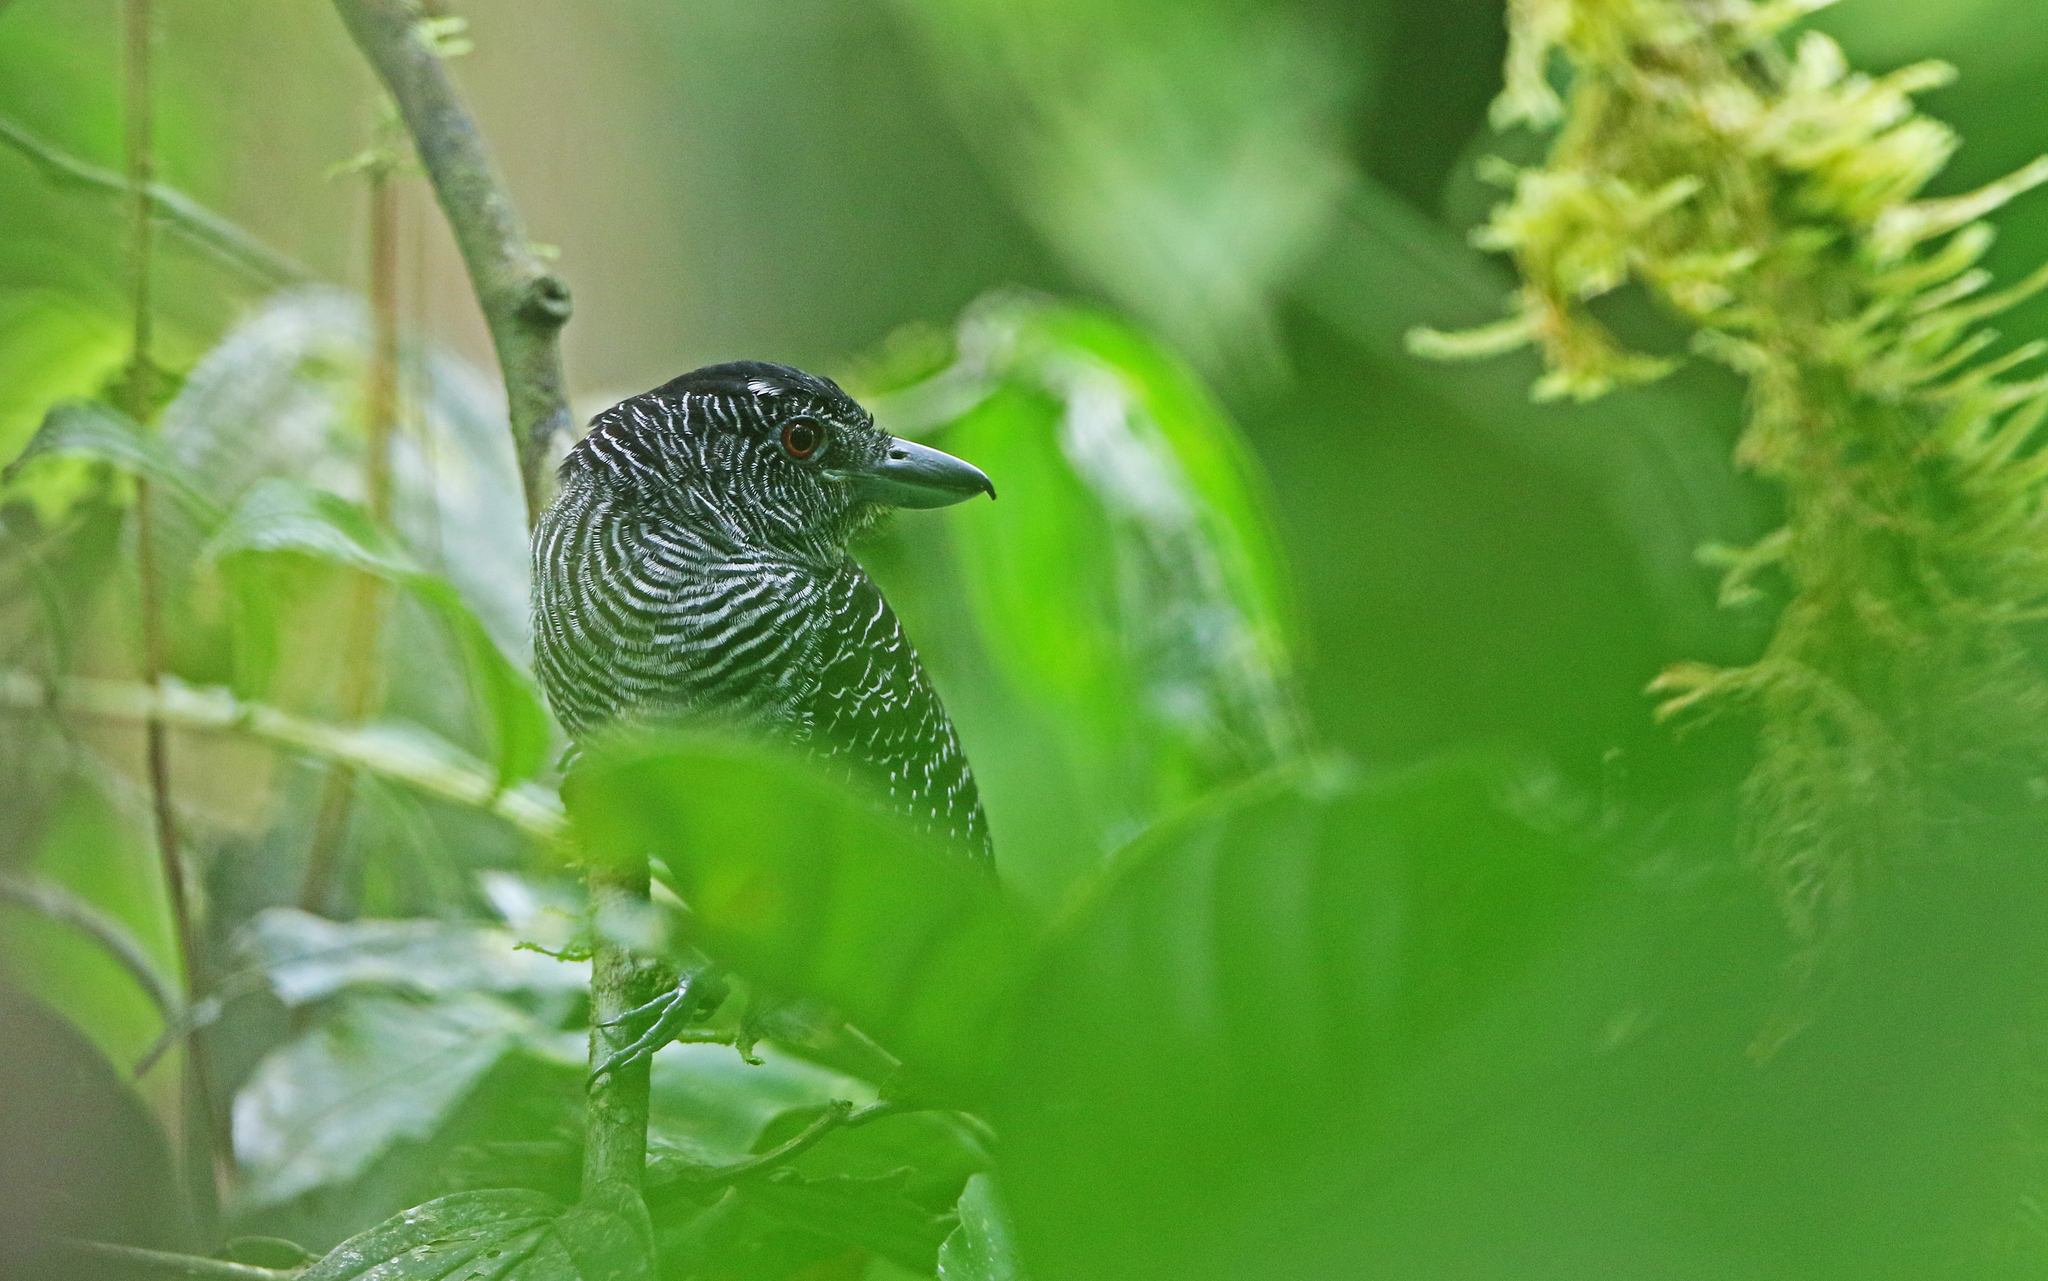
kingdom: Animalia
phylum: Chordata
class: Aves
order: Passeriformes
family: Thamnophilidae
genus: Cymbilaimus
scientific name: Cymbilaimus lineatus
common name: Fasciated antshrike
